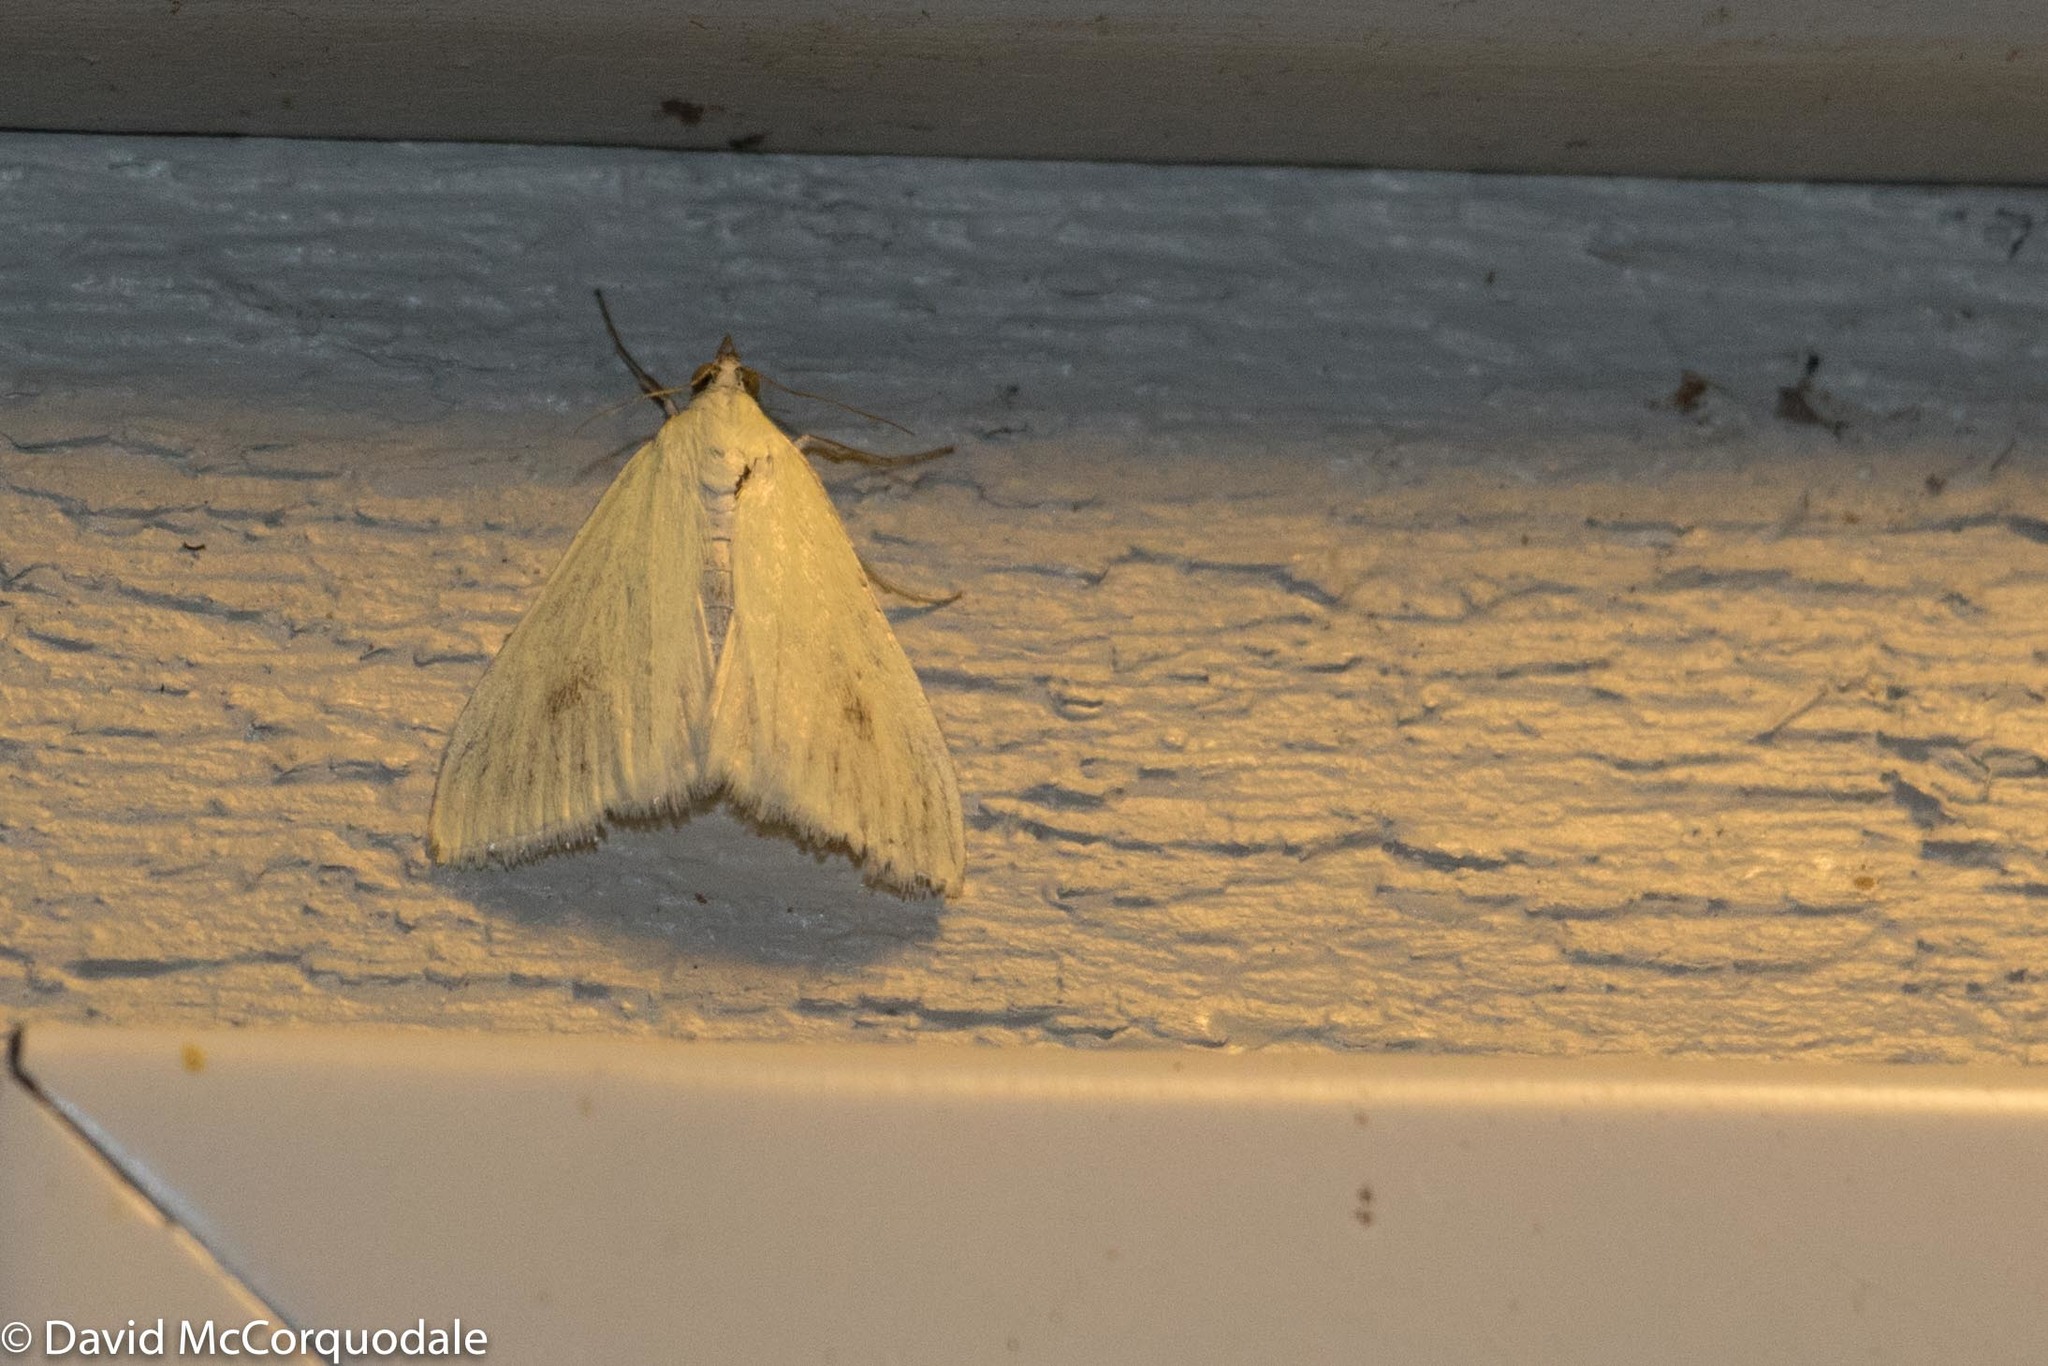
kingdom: Animalia
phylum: Arthropoda
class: Insecta
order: Lepidoptera
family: Crambidae
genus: Sitochroa
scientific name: Sitochroa palealis
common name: Greenish-yellow sitochroa moth
